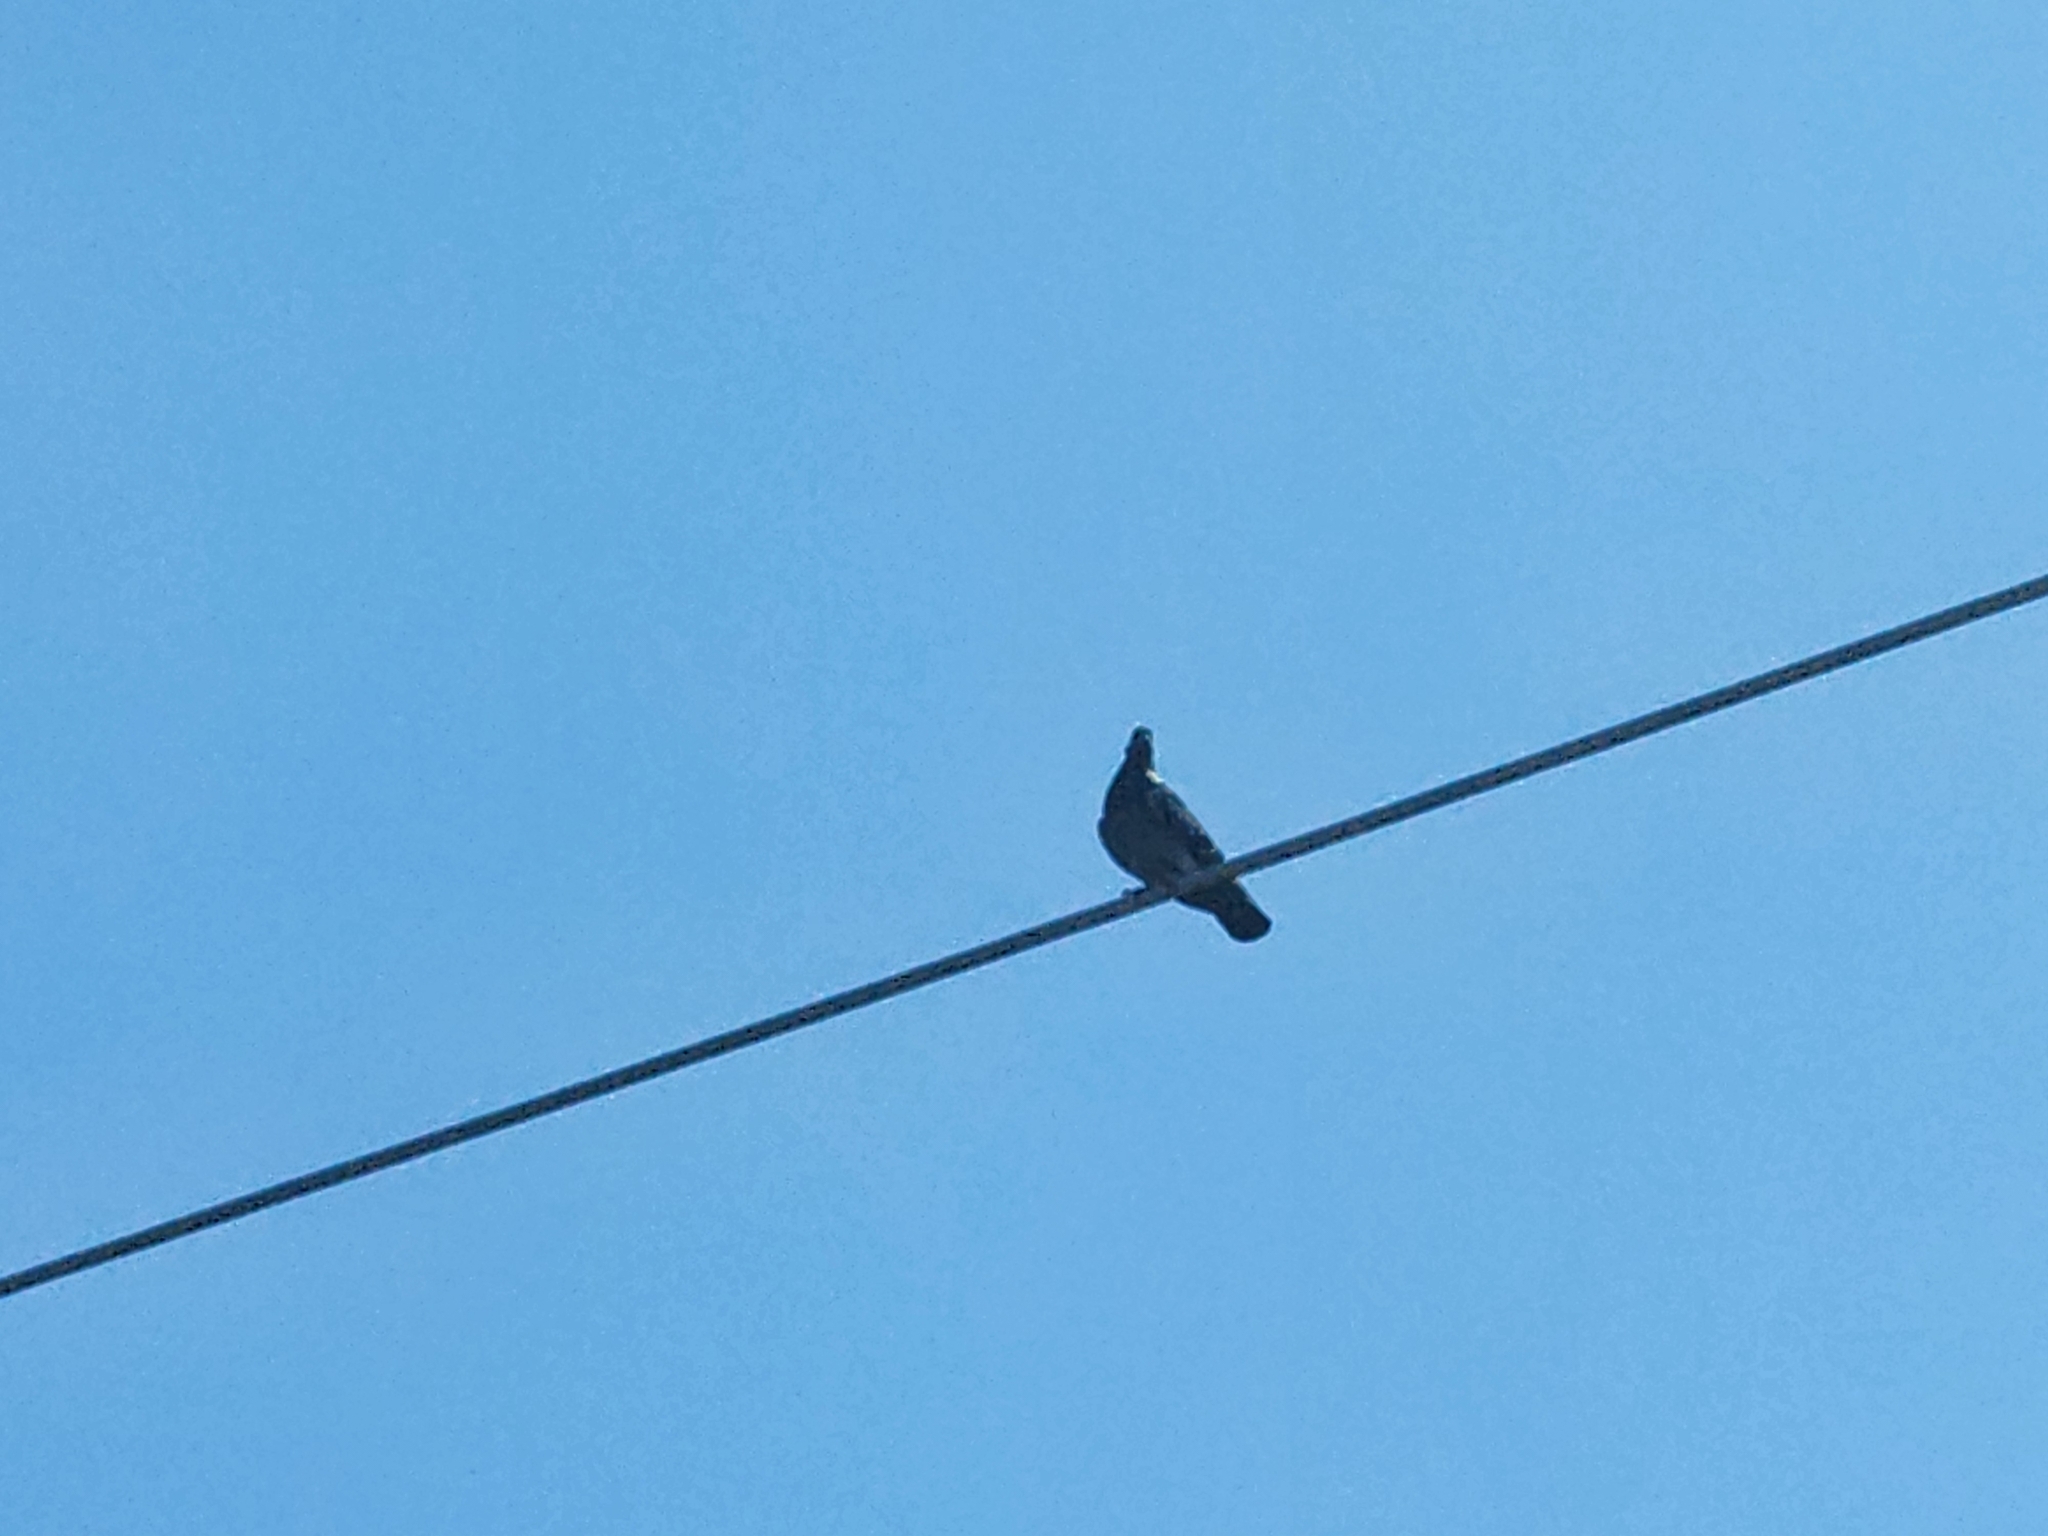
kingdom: Animalia
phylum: Chordata
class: Aves
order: Columbiformes
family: Columbidae
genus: Columba
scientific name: Columba livia
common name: Rock pigeon
